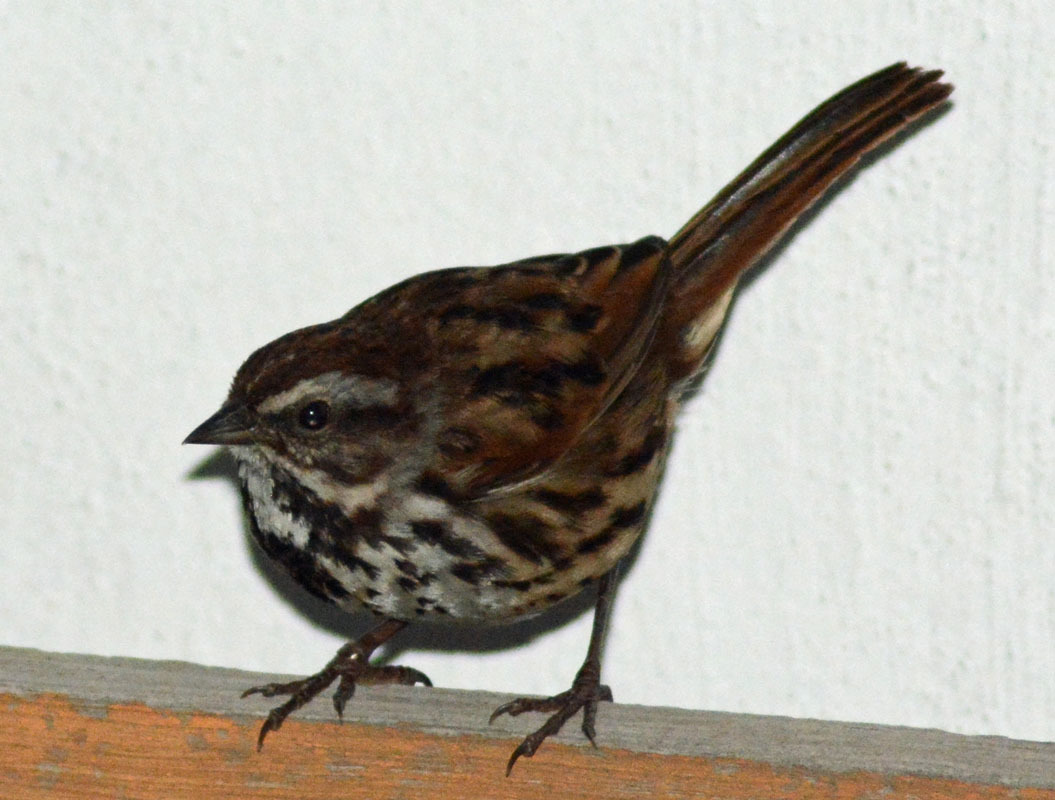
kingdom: Animalia
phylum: Chordata
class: Aves
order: Passeriformes
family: Passerellidae
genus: Melospiza
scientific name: Melospiza melodia
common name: Song sparrow
